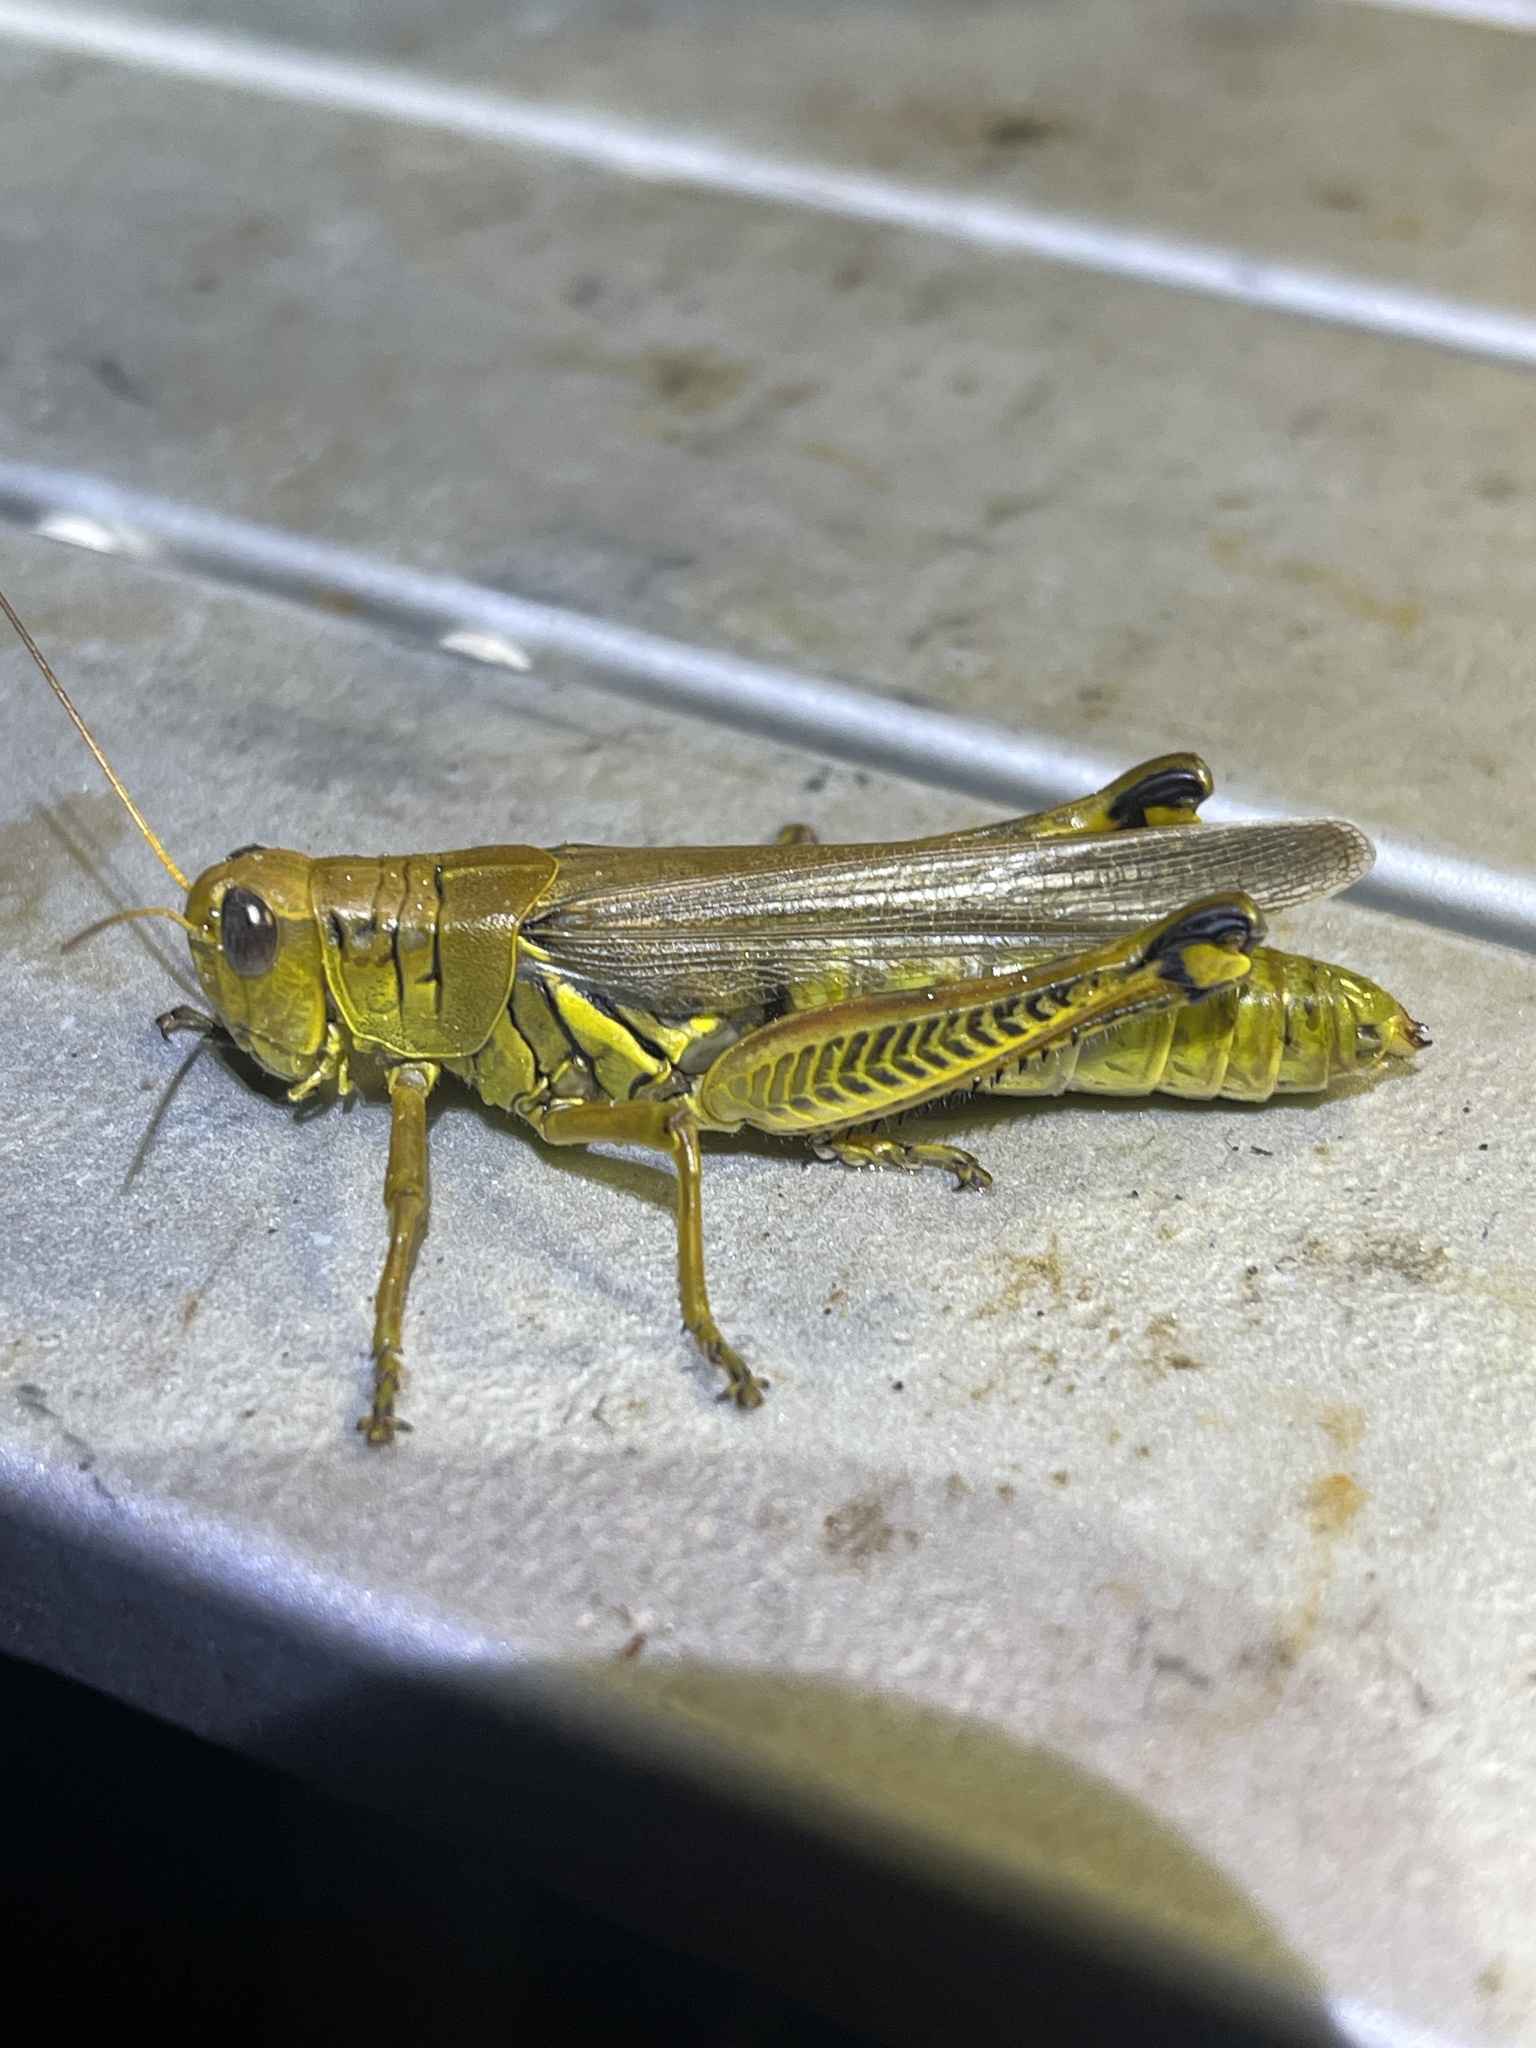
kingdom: Animalia
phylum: Arthropoda
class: Insecta
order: Orthoptera
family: Acrididae
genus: Melanoplus
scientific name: Melanoplus differentialis
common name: Differential grasshopper
